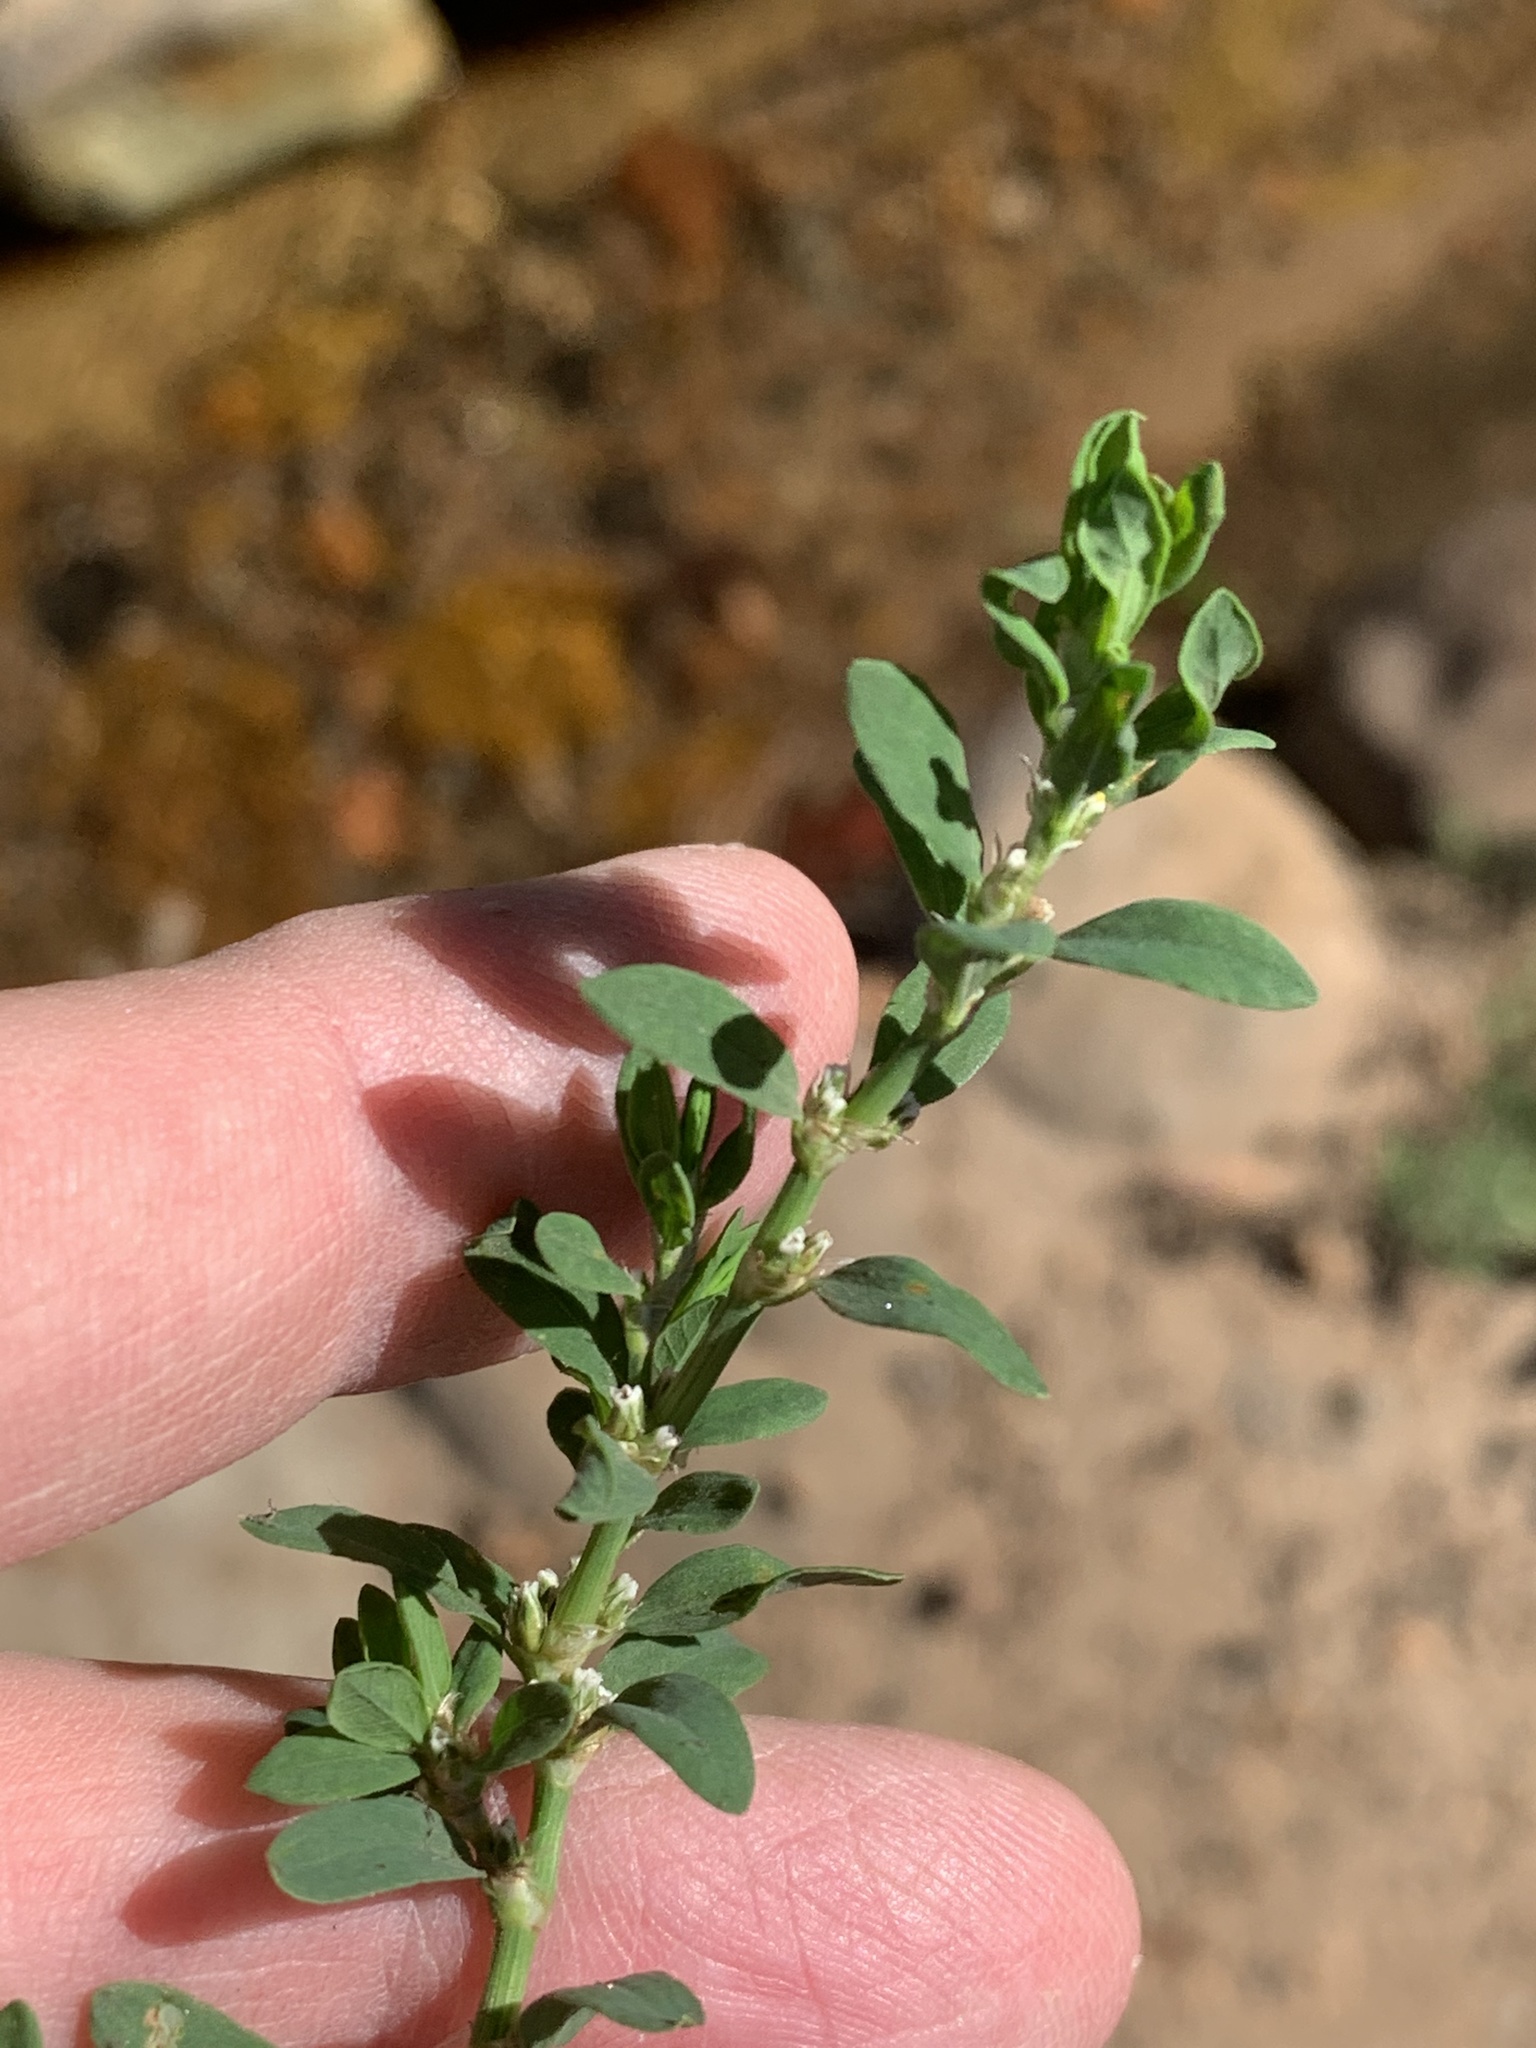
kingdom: Plantae
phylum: Tracheophyta
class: Magnoliopsida
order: Caryophyllales
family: Polygonaceae
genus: Polygonum
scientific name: Polygonum aviculare
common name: Prostrate knotweed
